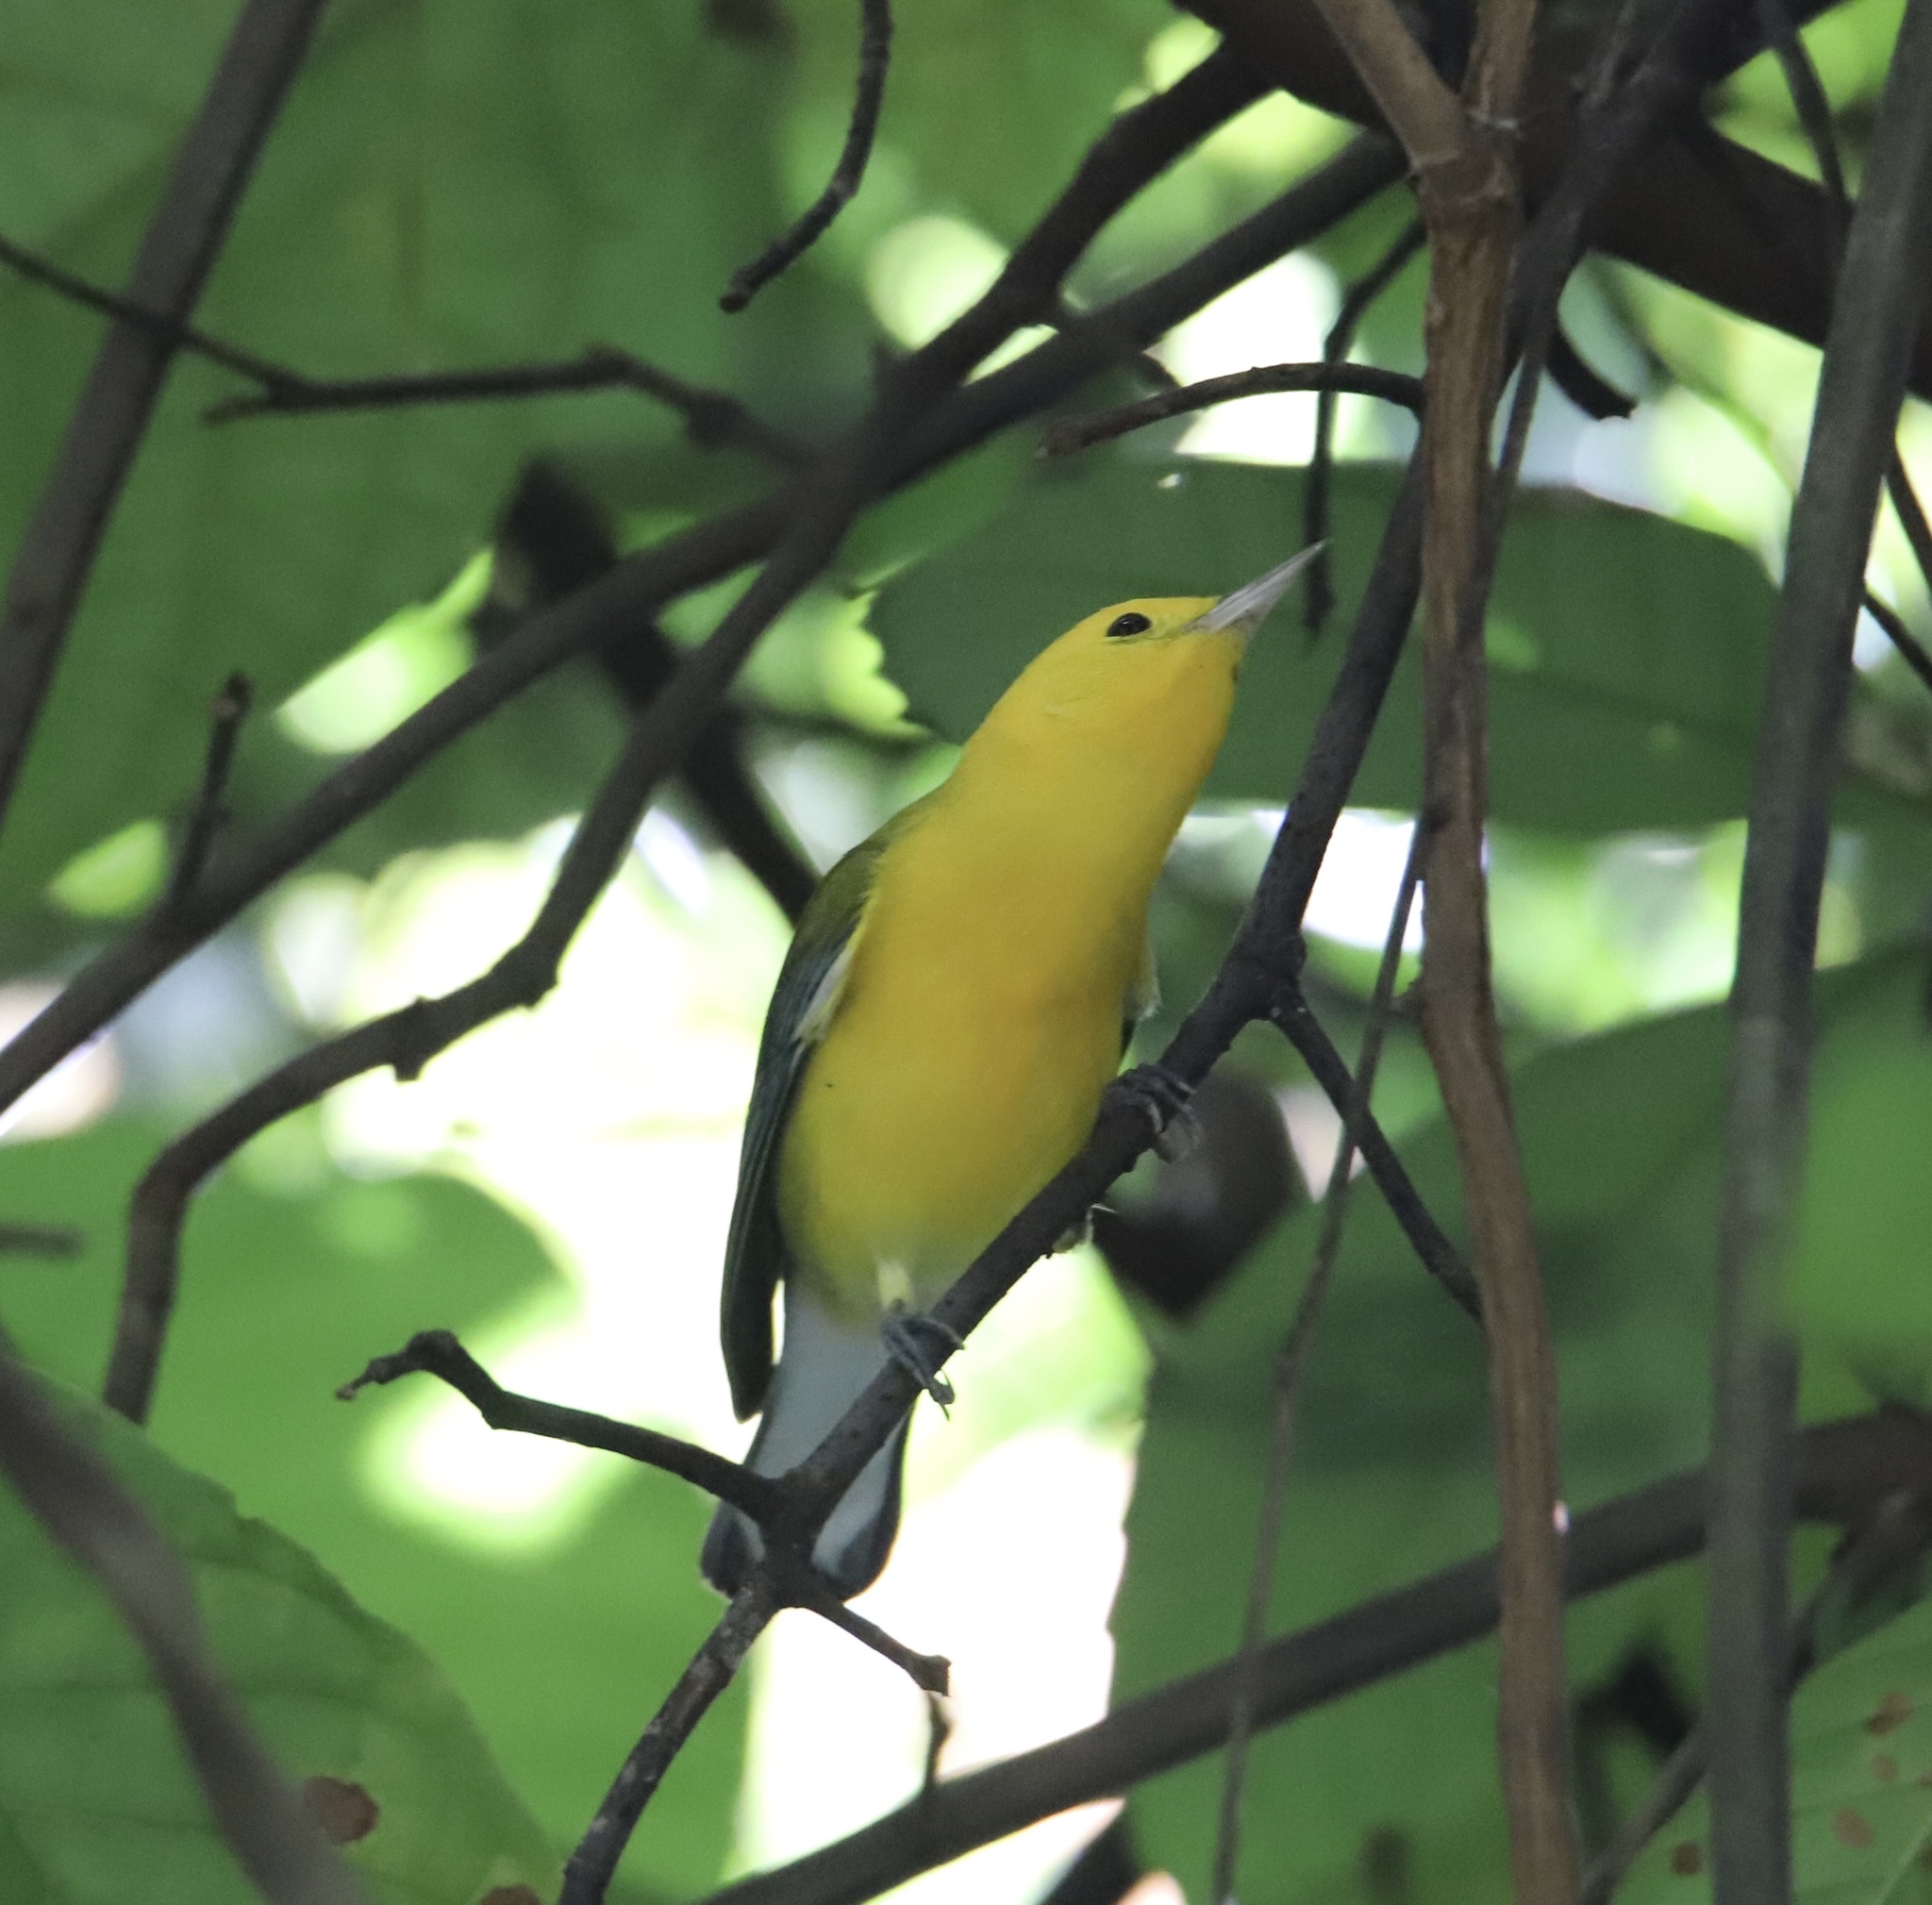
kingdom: Animalia
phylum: Chordata
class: Aves
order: Passeriformes
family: Parulidae
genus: Protonotaria
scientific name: Protonotaria citrea
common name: Prothonotary warbler
